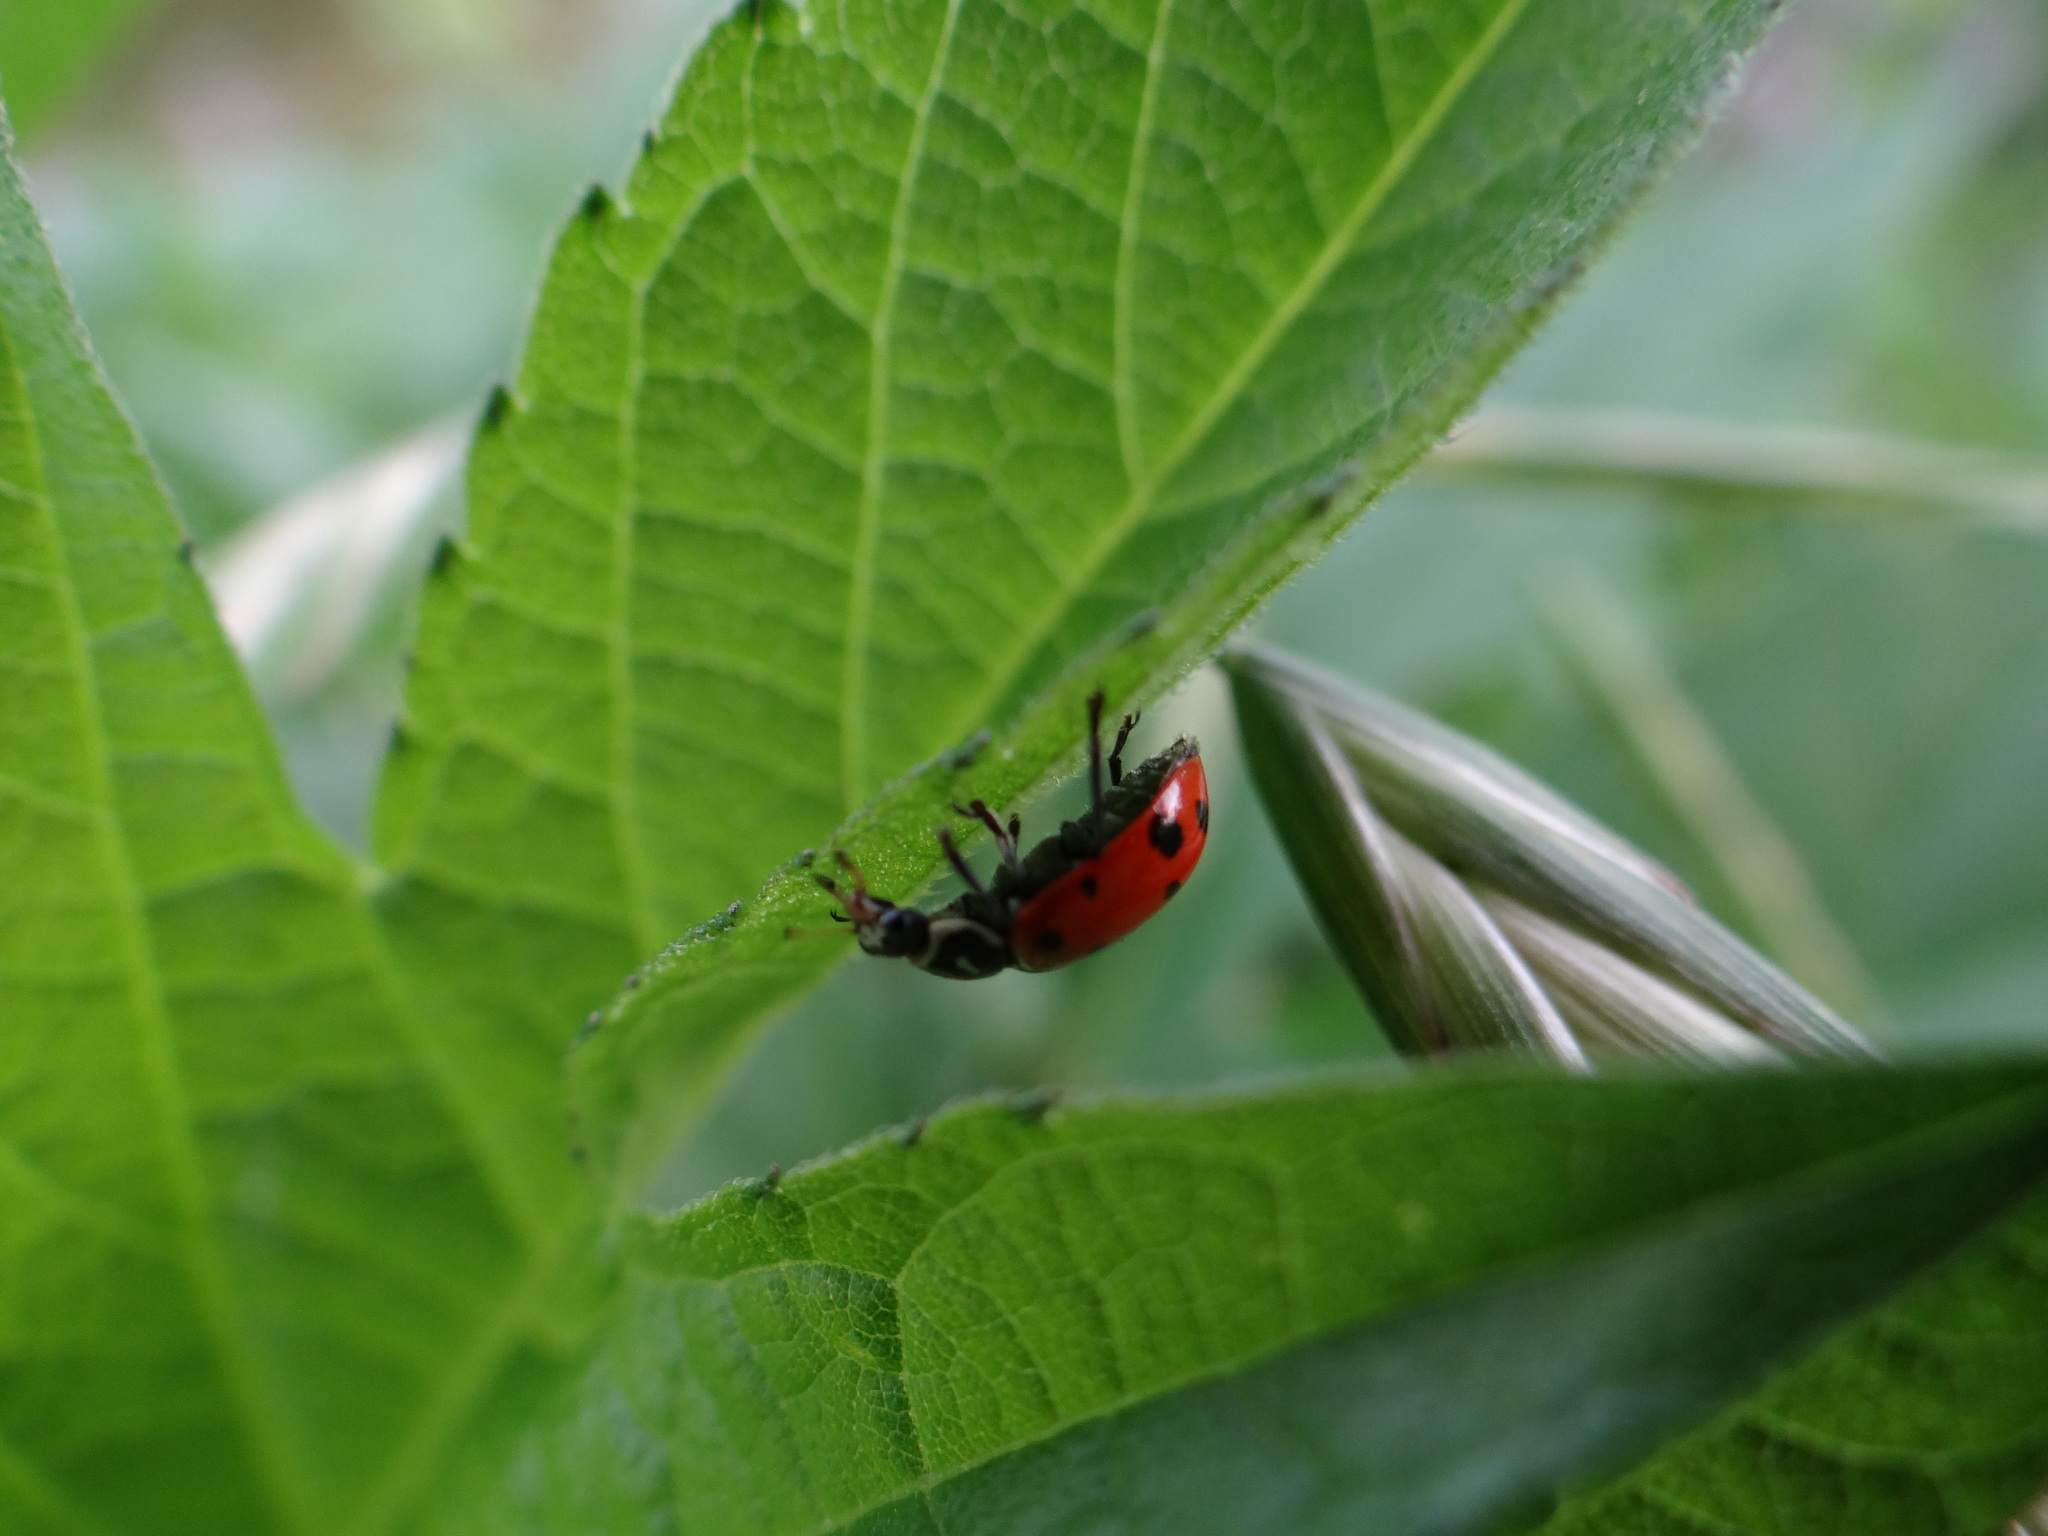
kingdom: Animalia
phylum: Arthropoda
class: Insecta
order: Coleoptera
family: Coccinellidae
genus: Hippodamia
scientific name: Hippodamia convergens
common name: Convergent lady beetle
